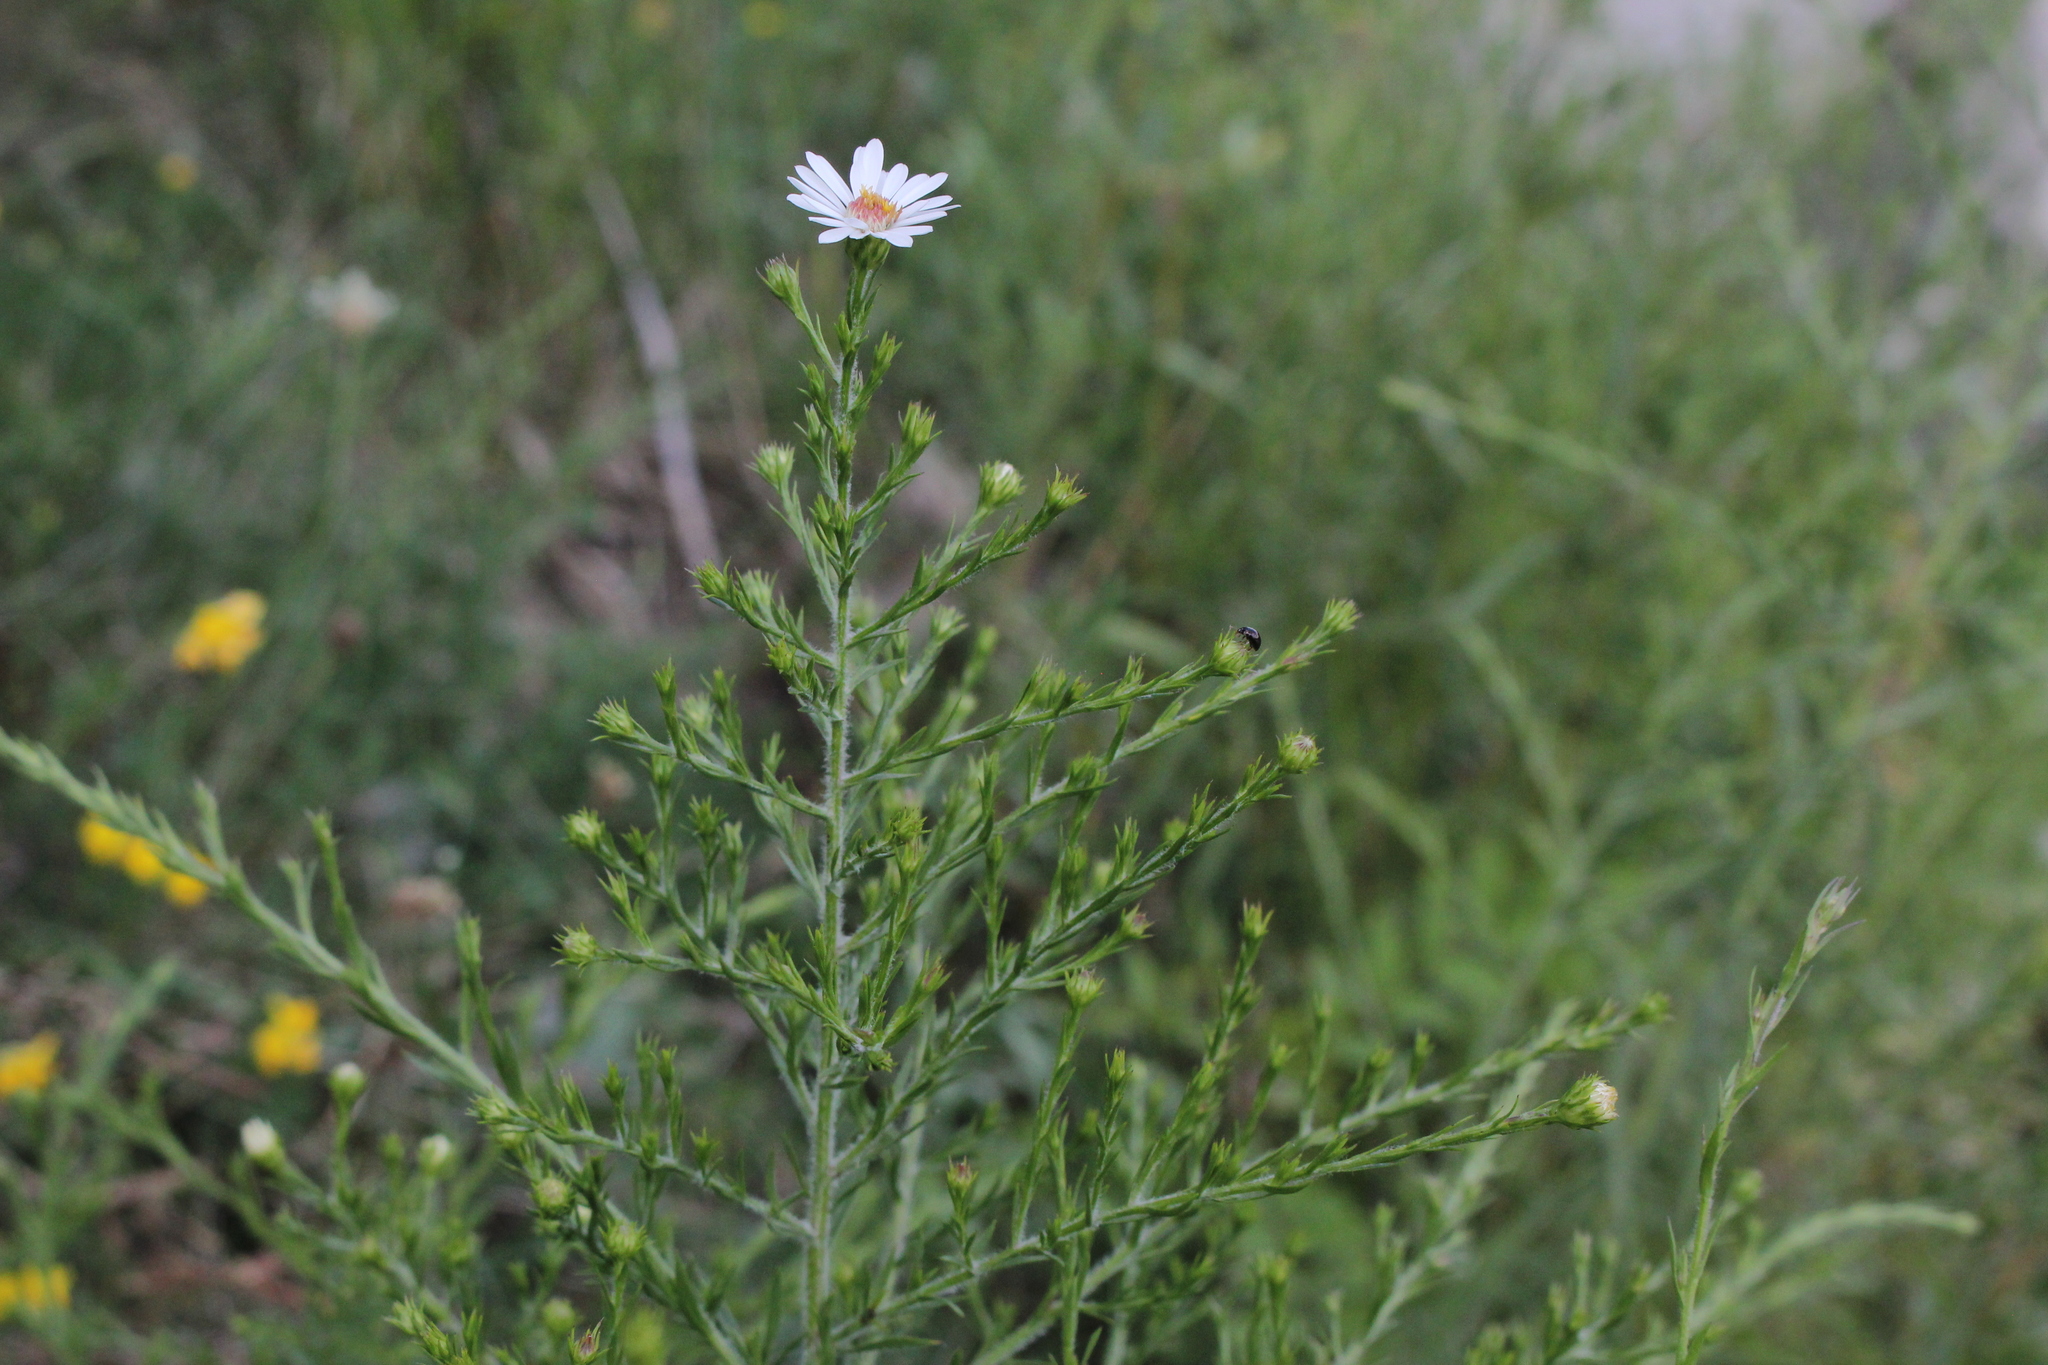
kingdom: Plantae
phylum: Tracheophyta
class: Magnoliopsida
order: Asterales
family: Asteraceae
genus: Symphyotrichum
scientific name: Symphyotrichum pilosum
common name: Awl aster
